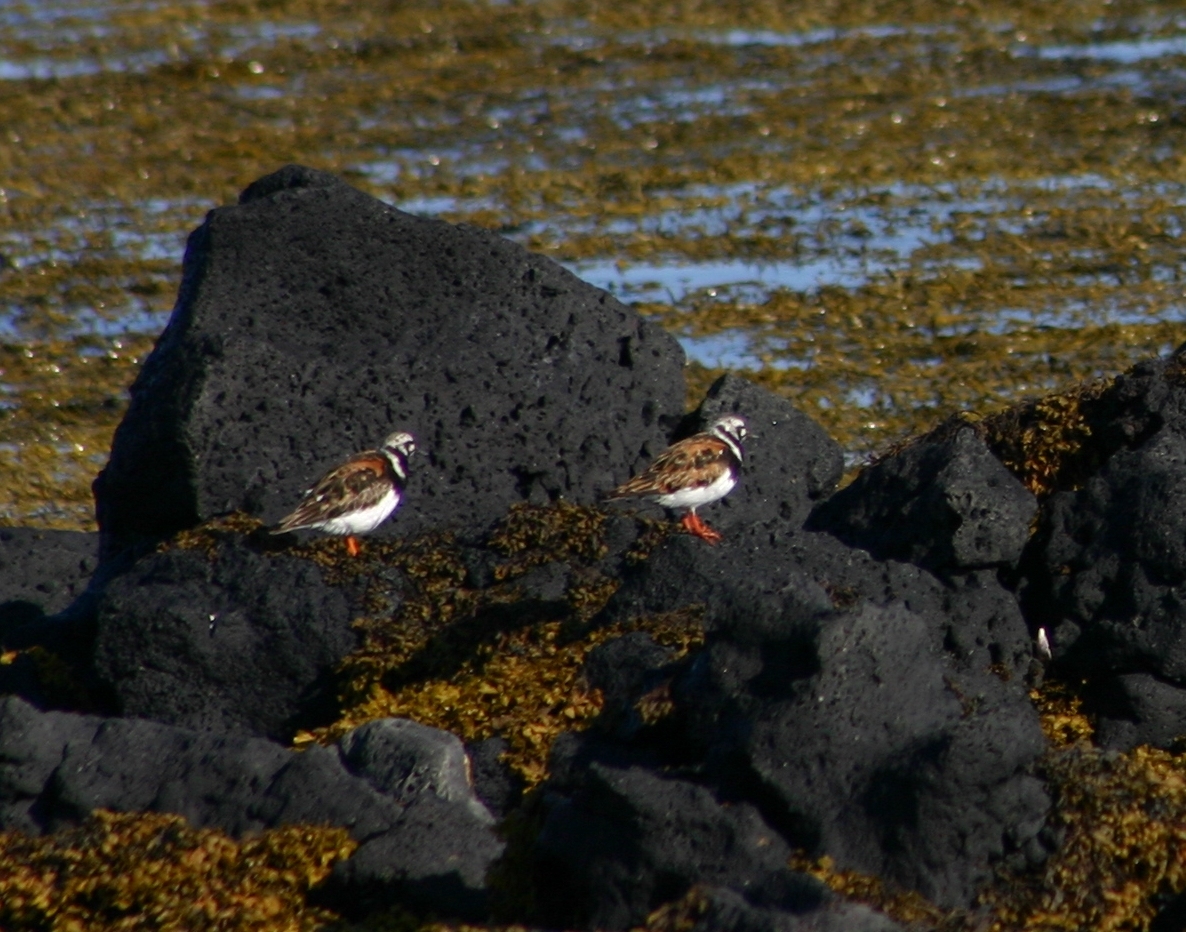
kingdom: Animalia
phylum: Chordata
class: Aves
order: Charadriiformes
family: Scolopacidae
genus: Arenaria
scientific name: Arenaria interpres
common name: Ruddy turnstone
